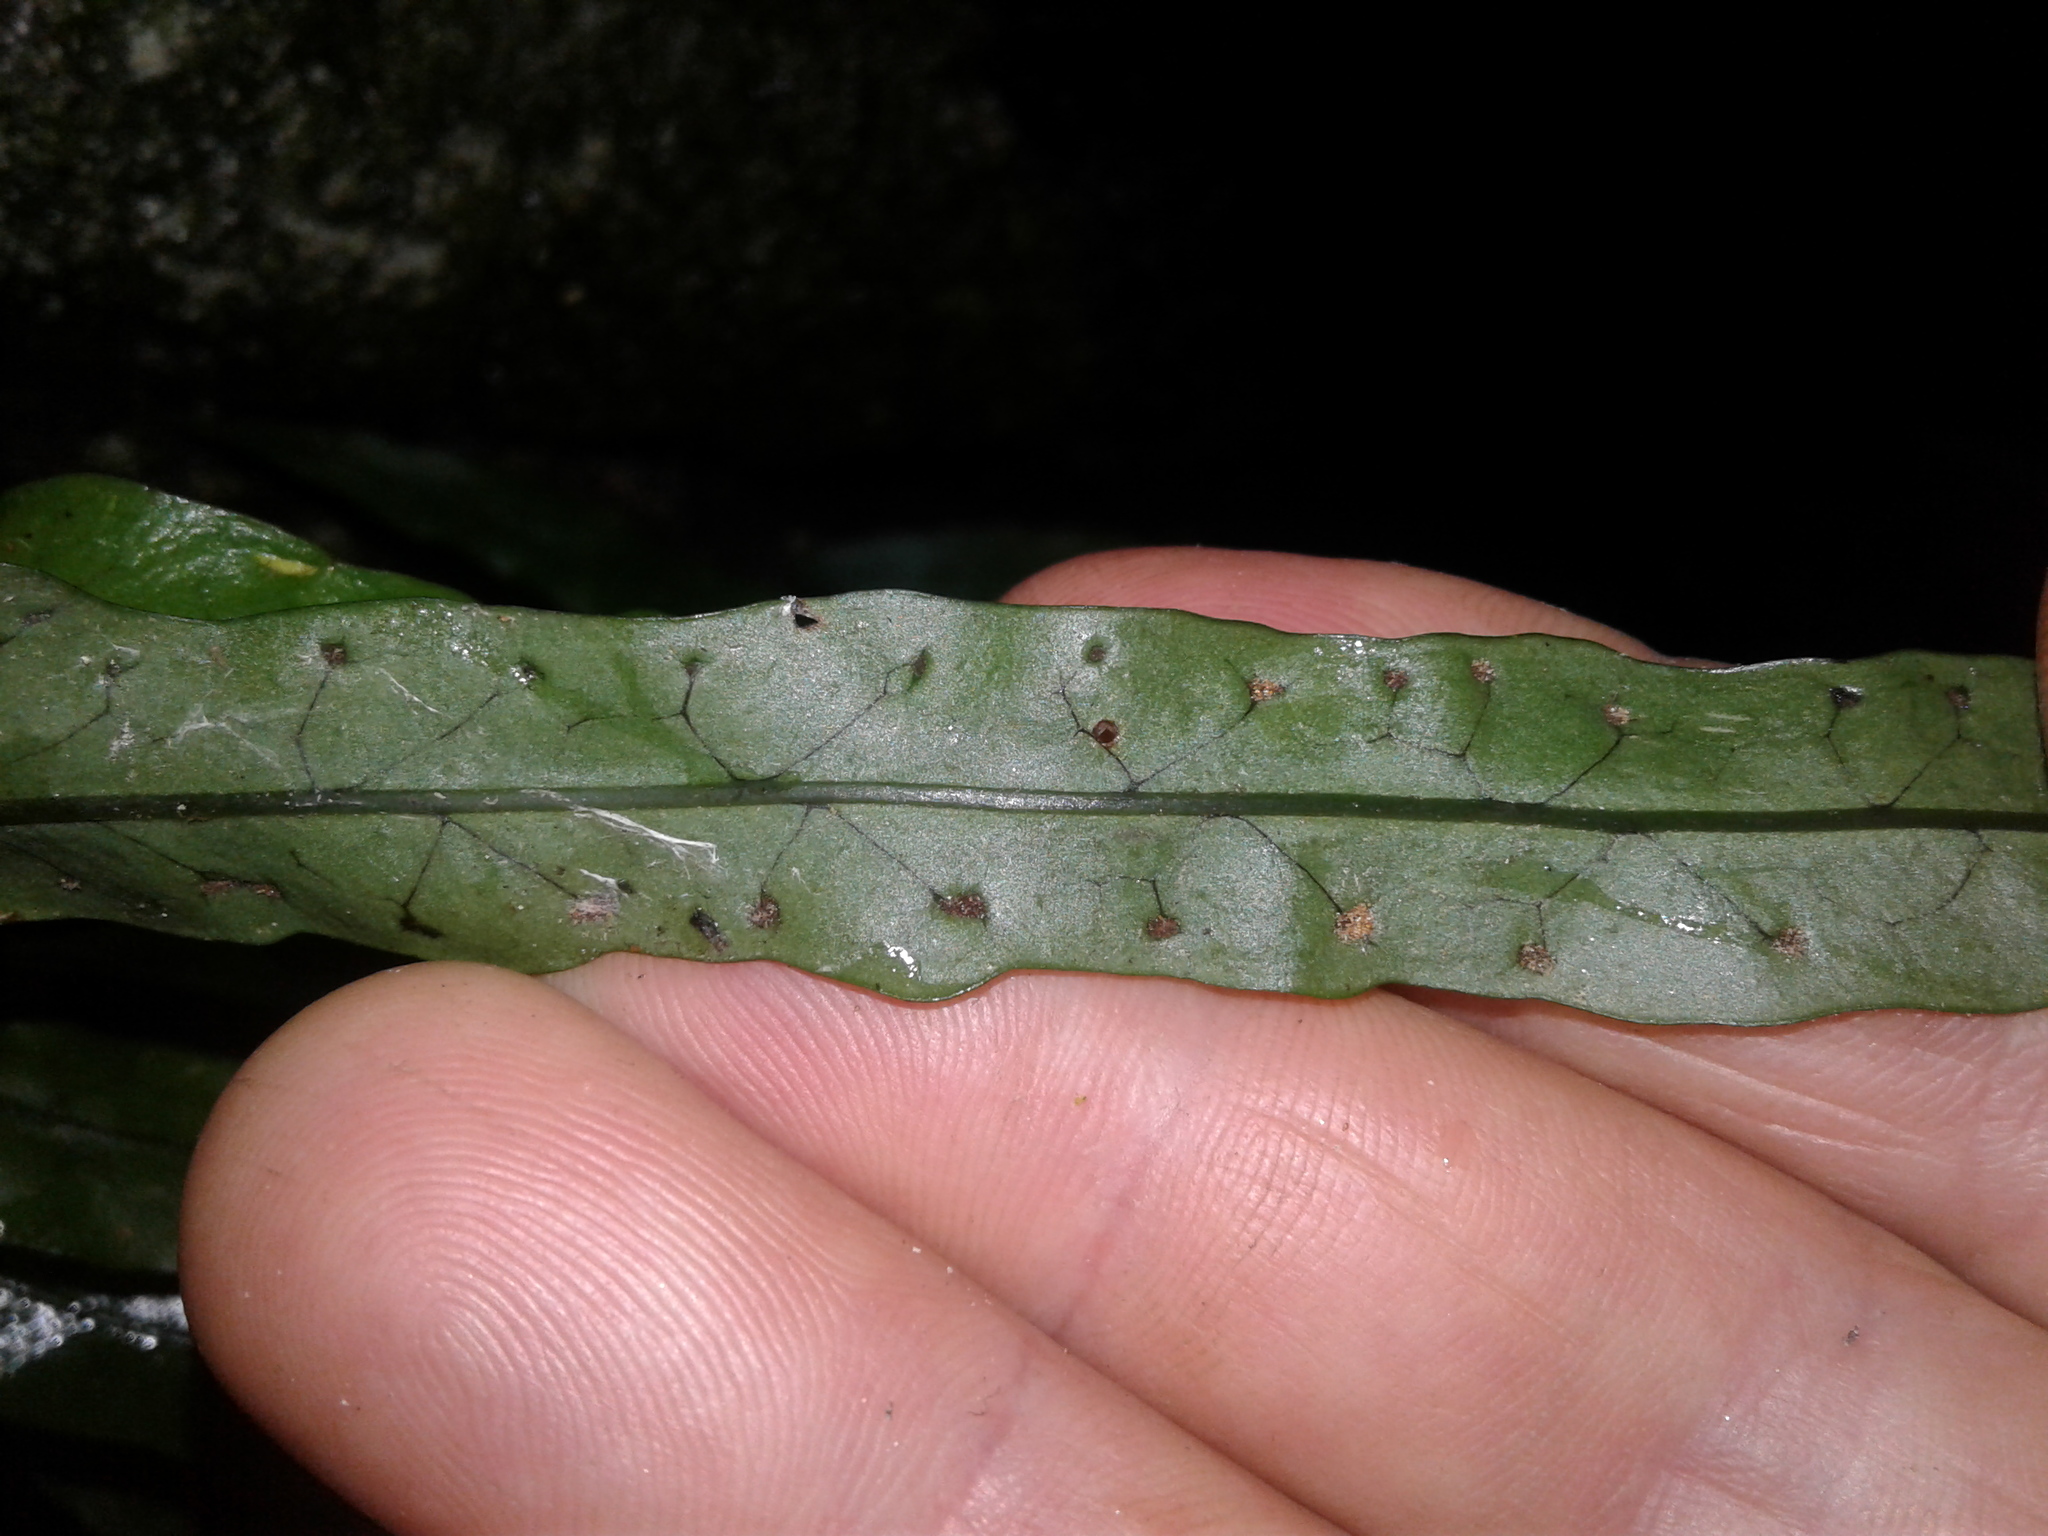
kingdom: Plantae
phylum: Tracheophyta
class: Polypodiopsida
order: Polypodiales
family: Polypodiaceae
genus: Lecanopteris
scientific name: Lecanopteris scandens
